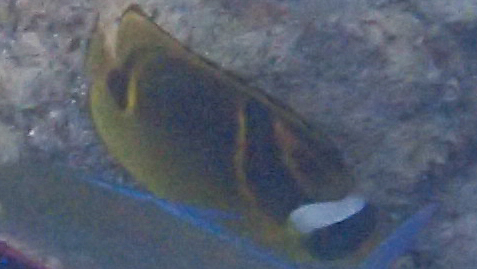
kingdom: Animalia
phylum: Chordata
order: Perciformes
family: Chaetodontidae
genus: Chaetodon
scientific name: Chaetodon lunula
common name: Raccoon butterflyfish
